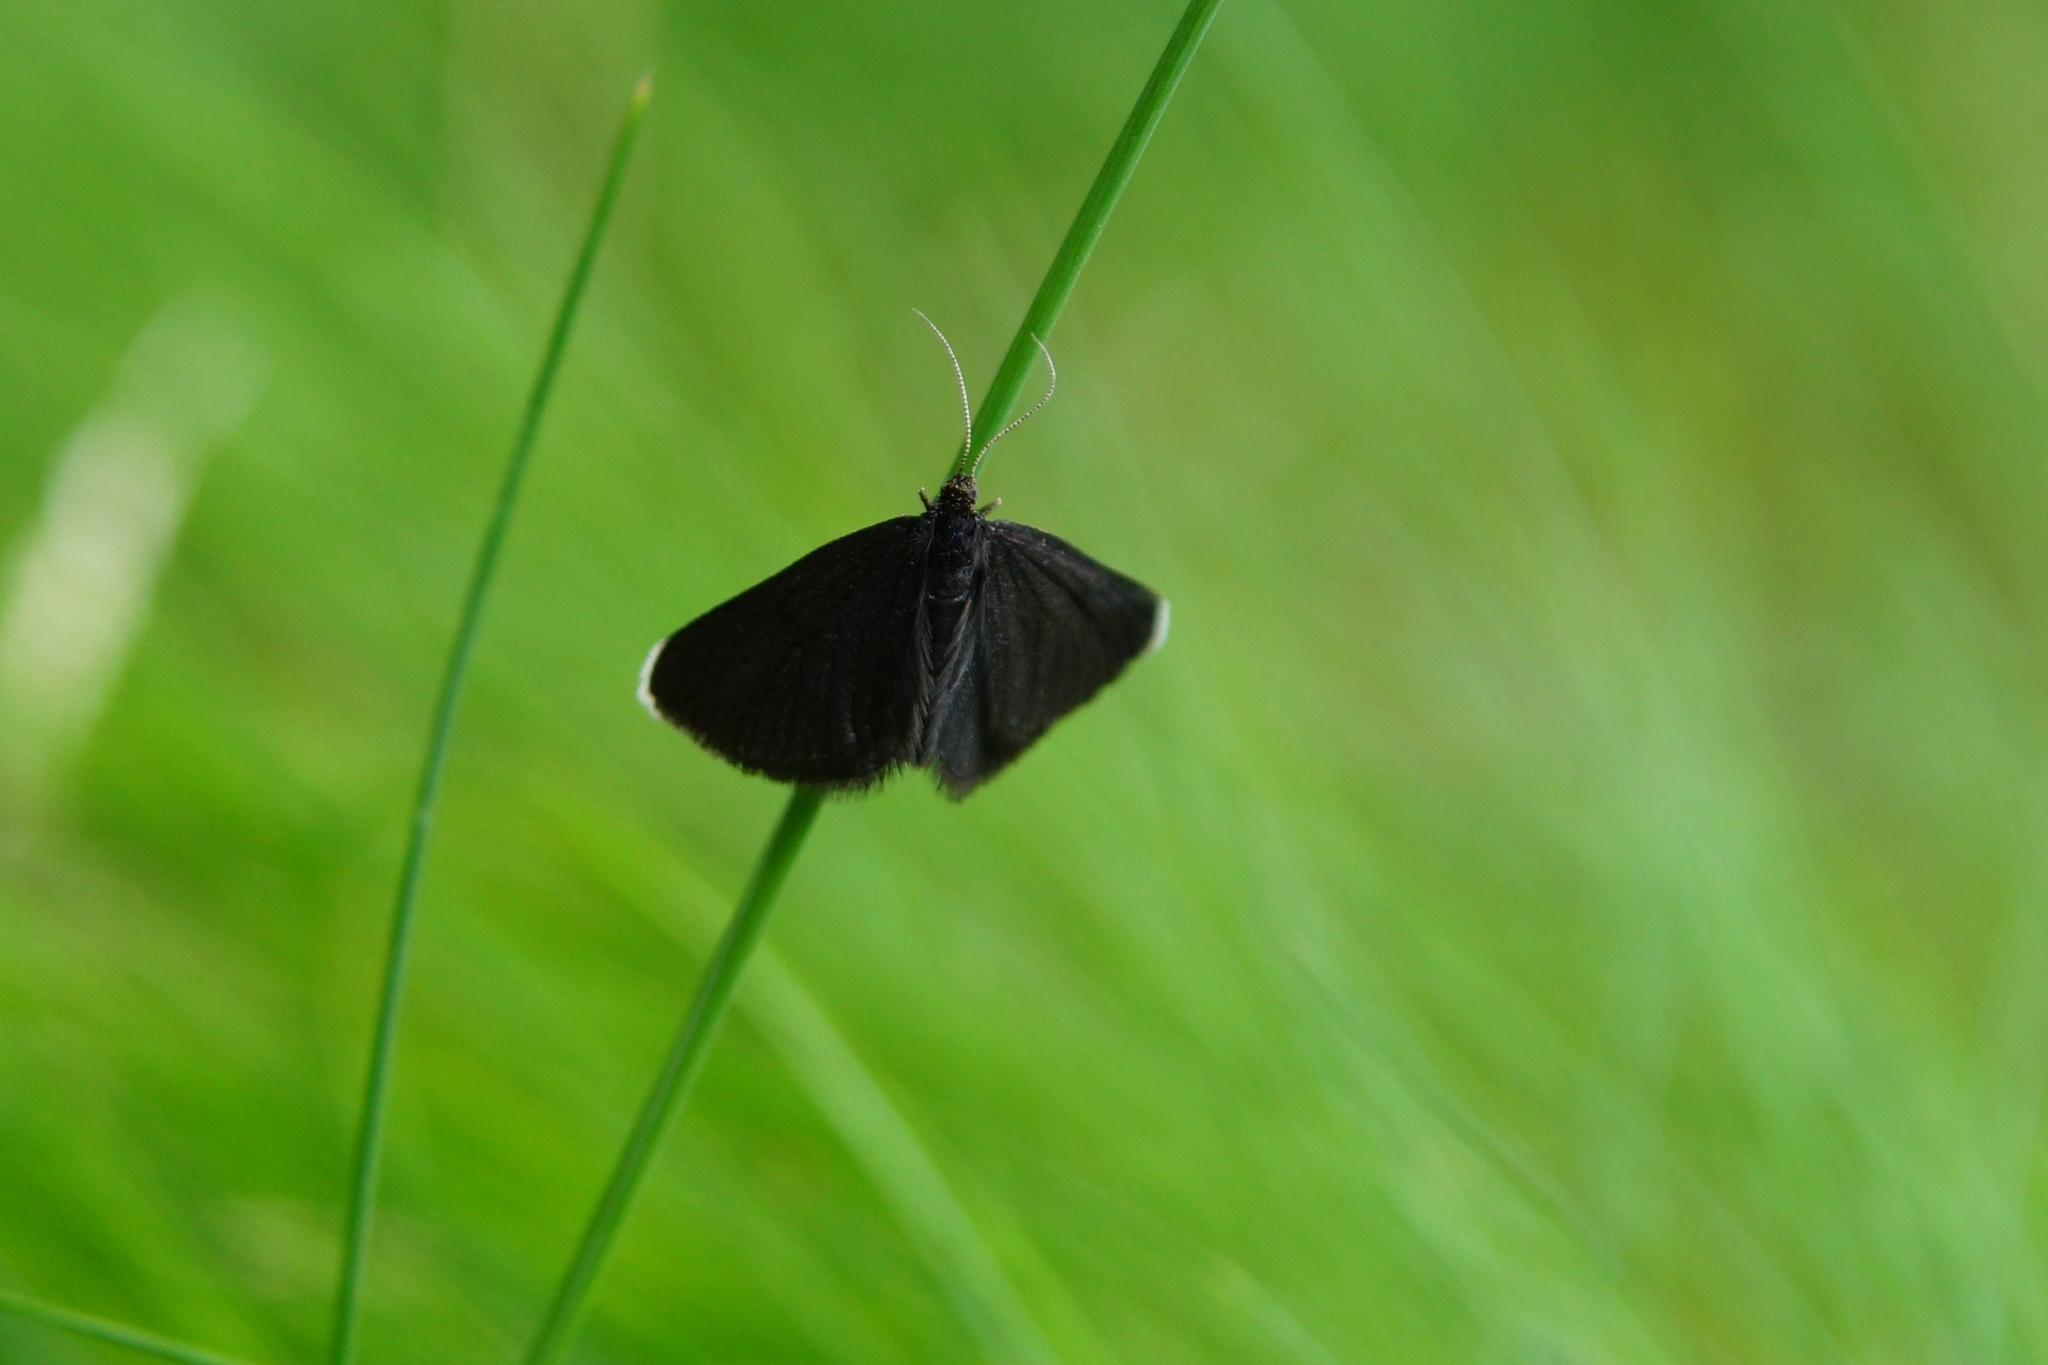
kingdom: Animalia
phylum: Arthropoda
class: Insecta
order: Lepidoptera
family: Geometridae
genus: Odezia
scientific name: Odezia atrata
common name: Chimney sweeper
